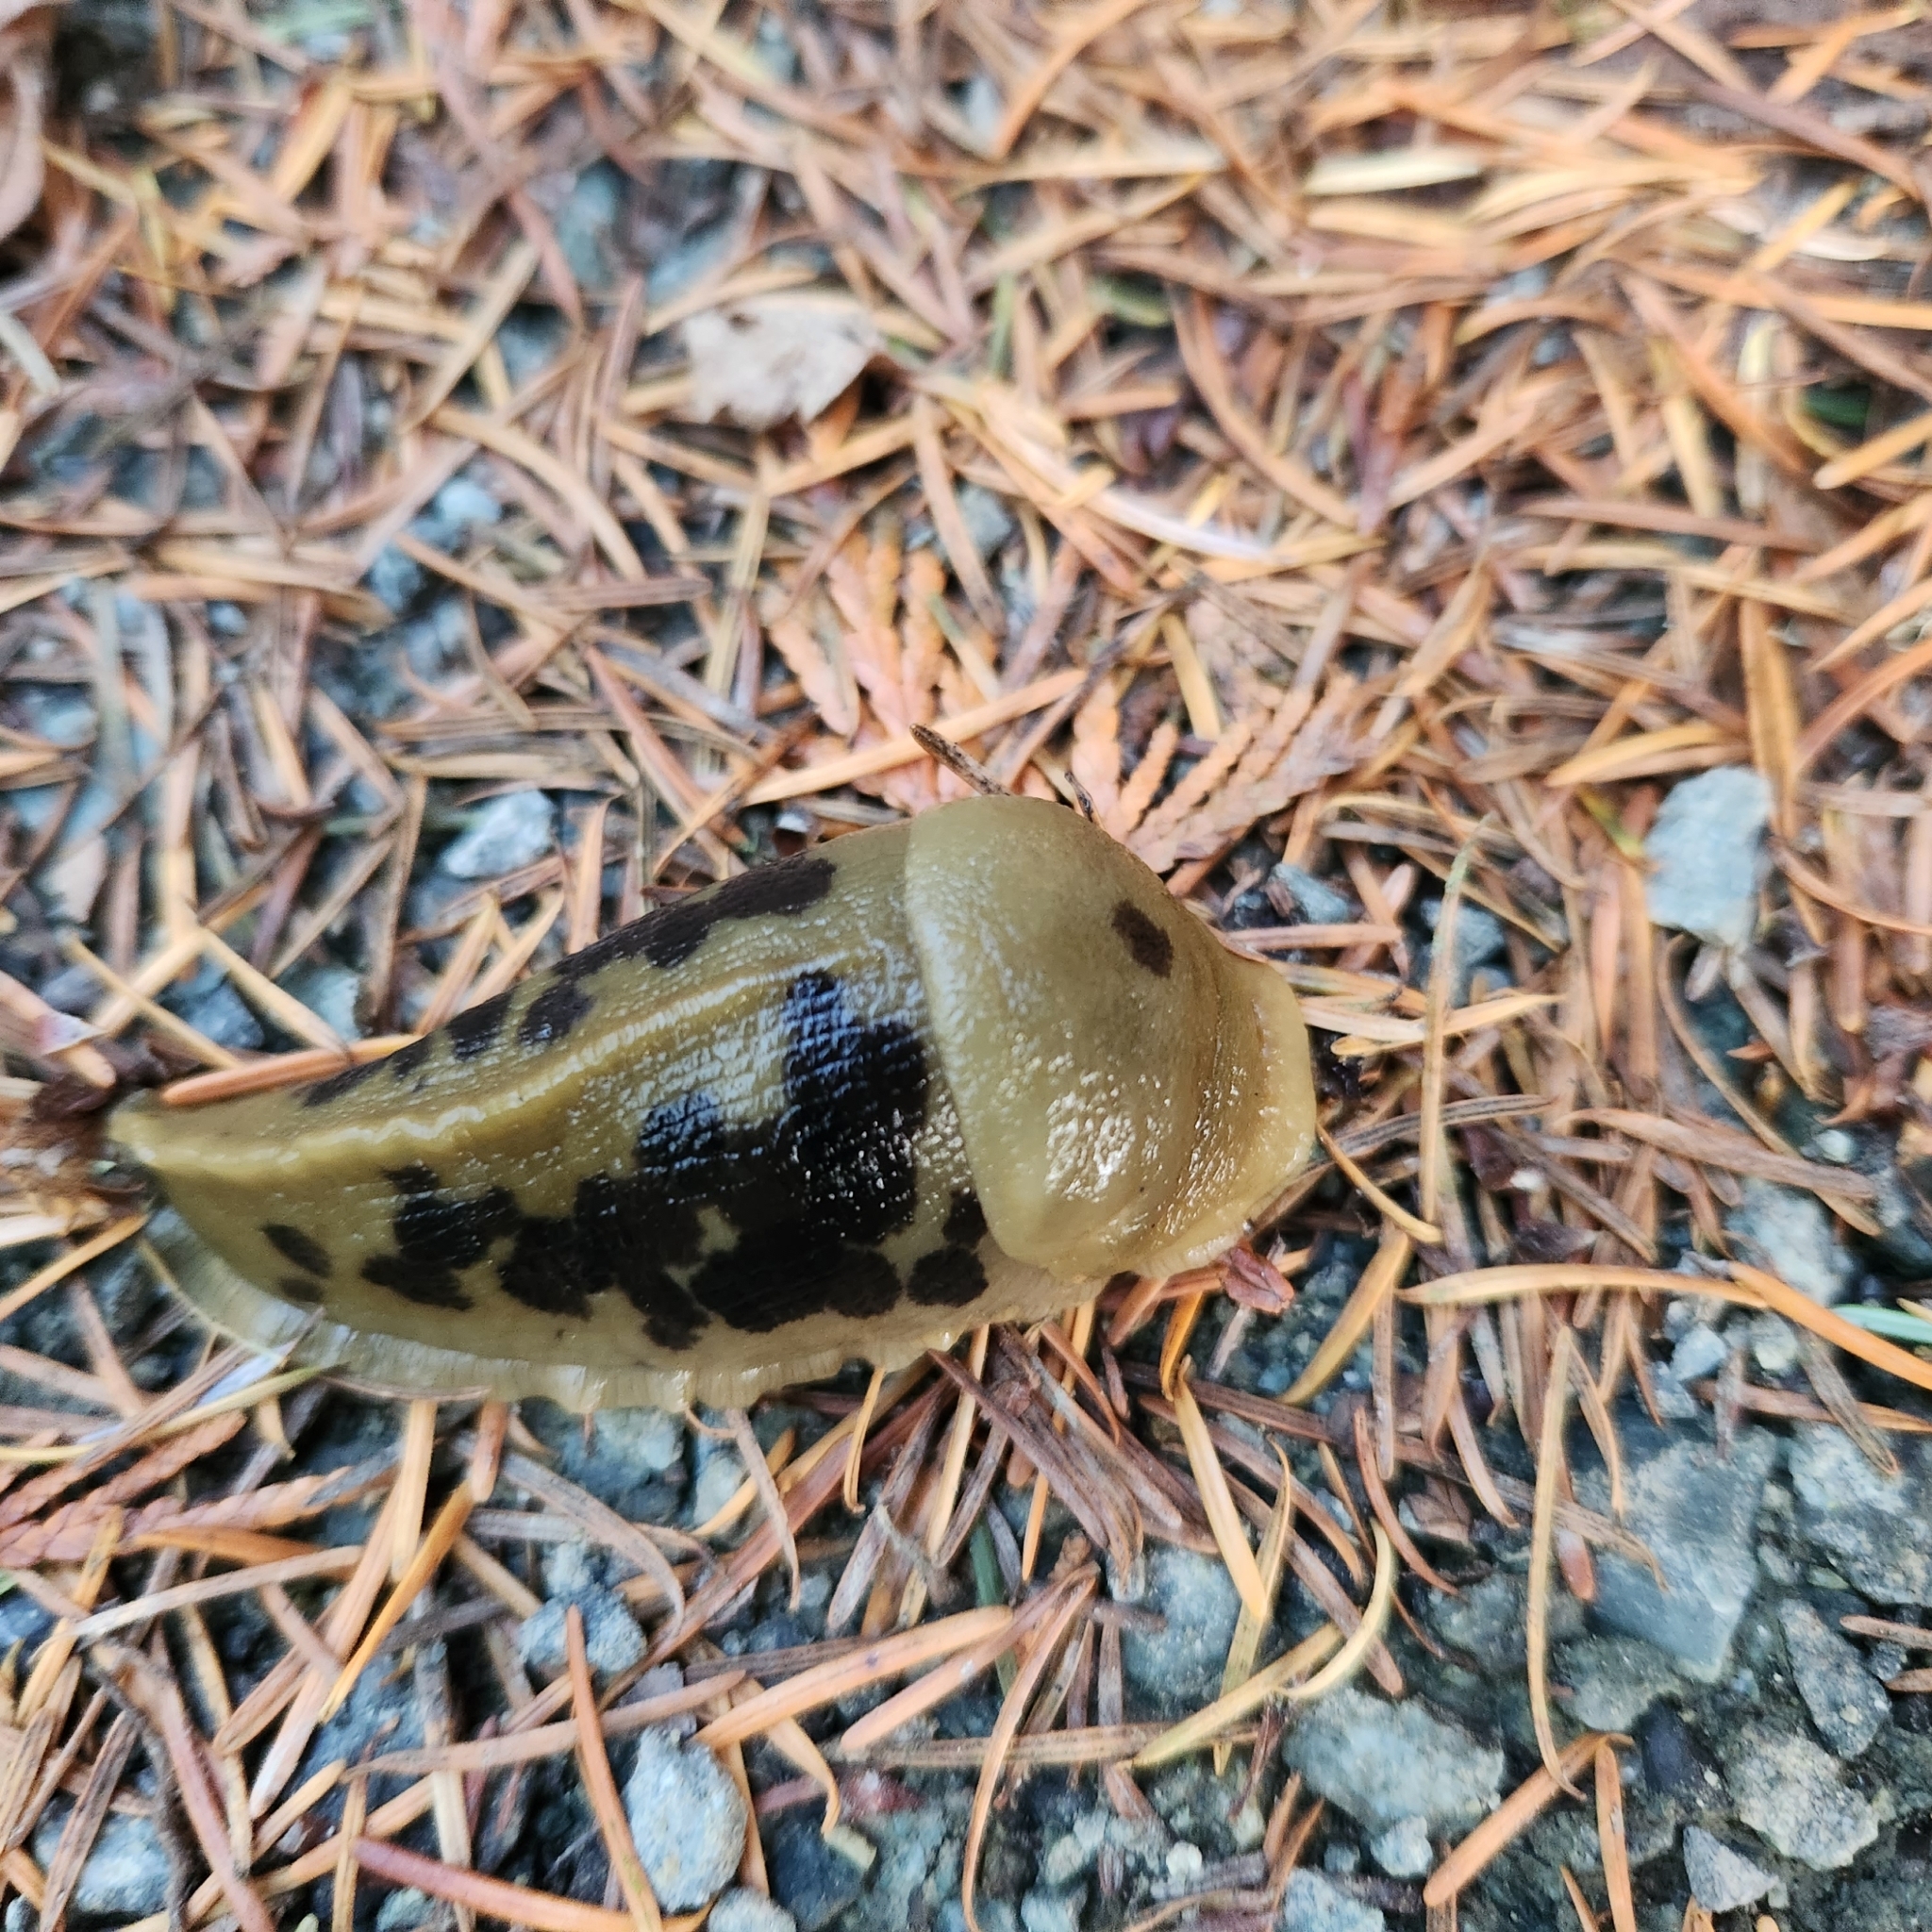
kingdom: Animalia
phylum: Mollusca
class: Gastropoda
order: Stylommatophora
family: Ariolimacidae
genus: Ariolimax
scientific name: Ariolimax columbianus
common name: Pacific banana slug
